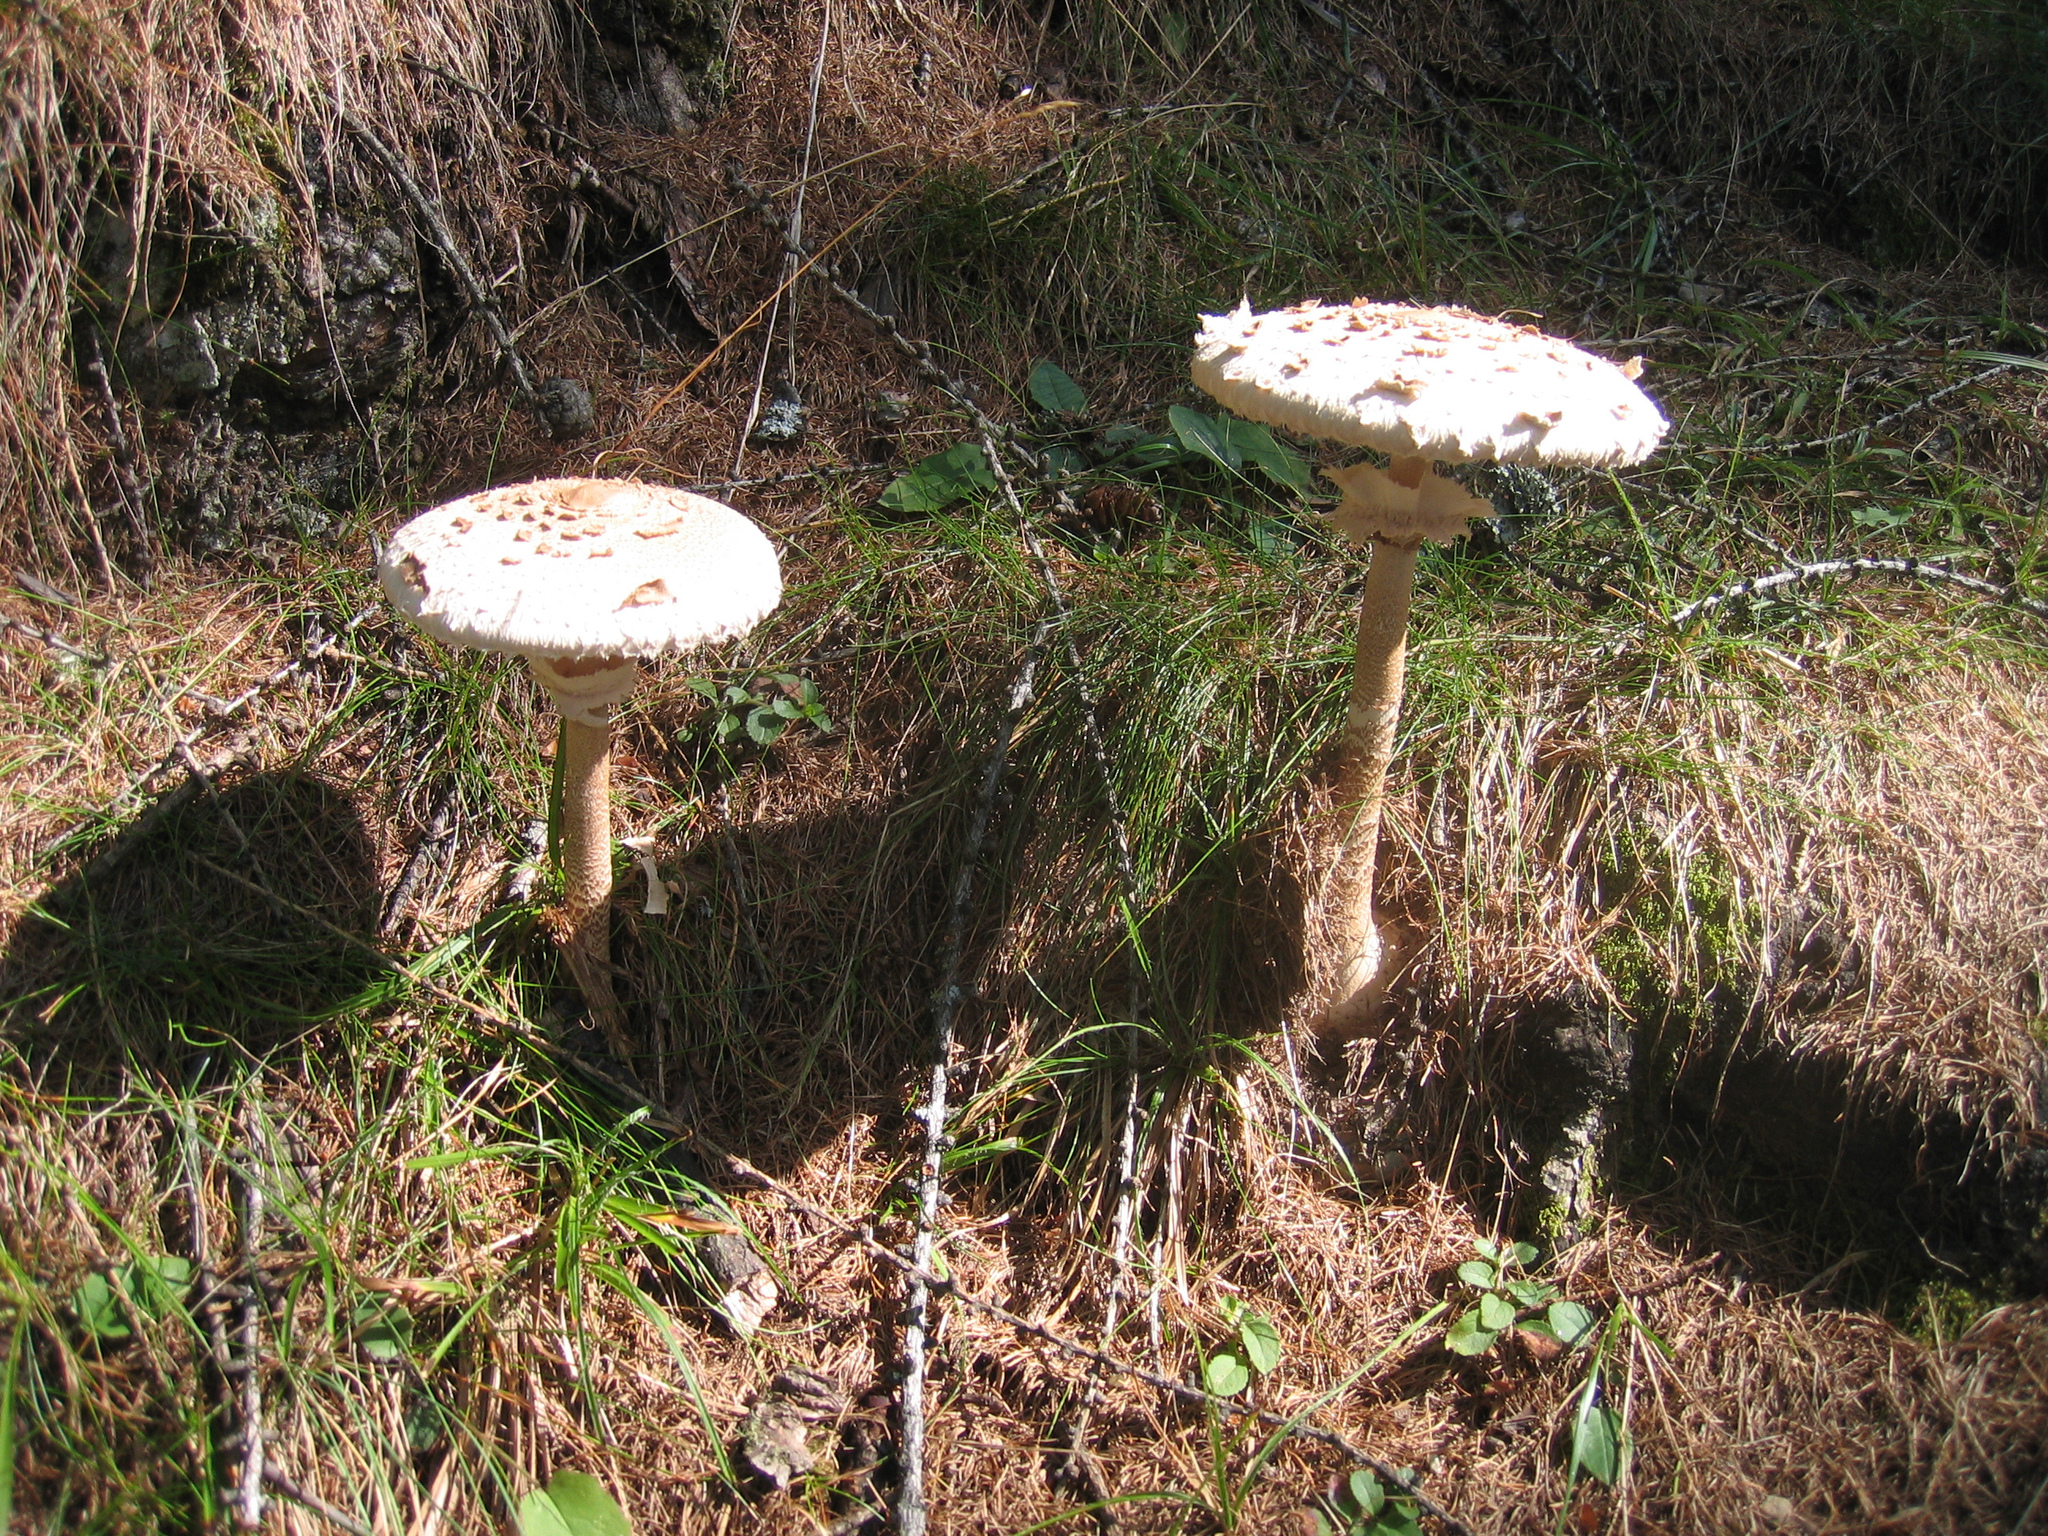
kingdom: Fungi
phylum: Basidiomycota
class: Agaricomycetes
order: Agaricales
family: Agaricaceae
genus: Macrolepiota
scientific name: Macrolepiota procera
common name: Parasol
